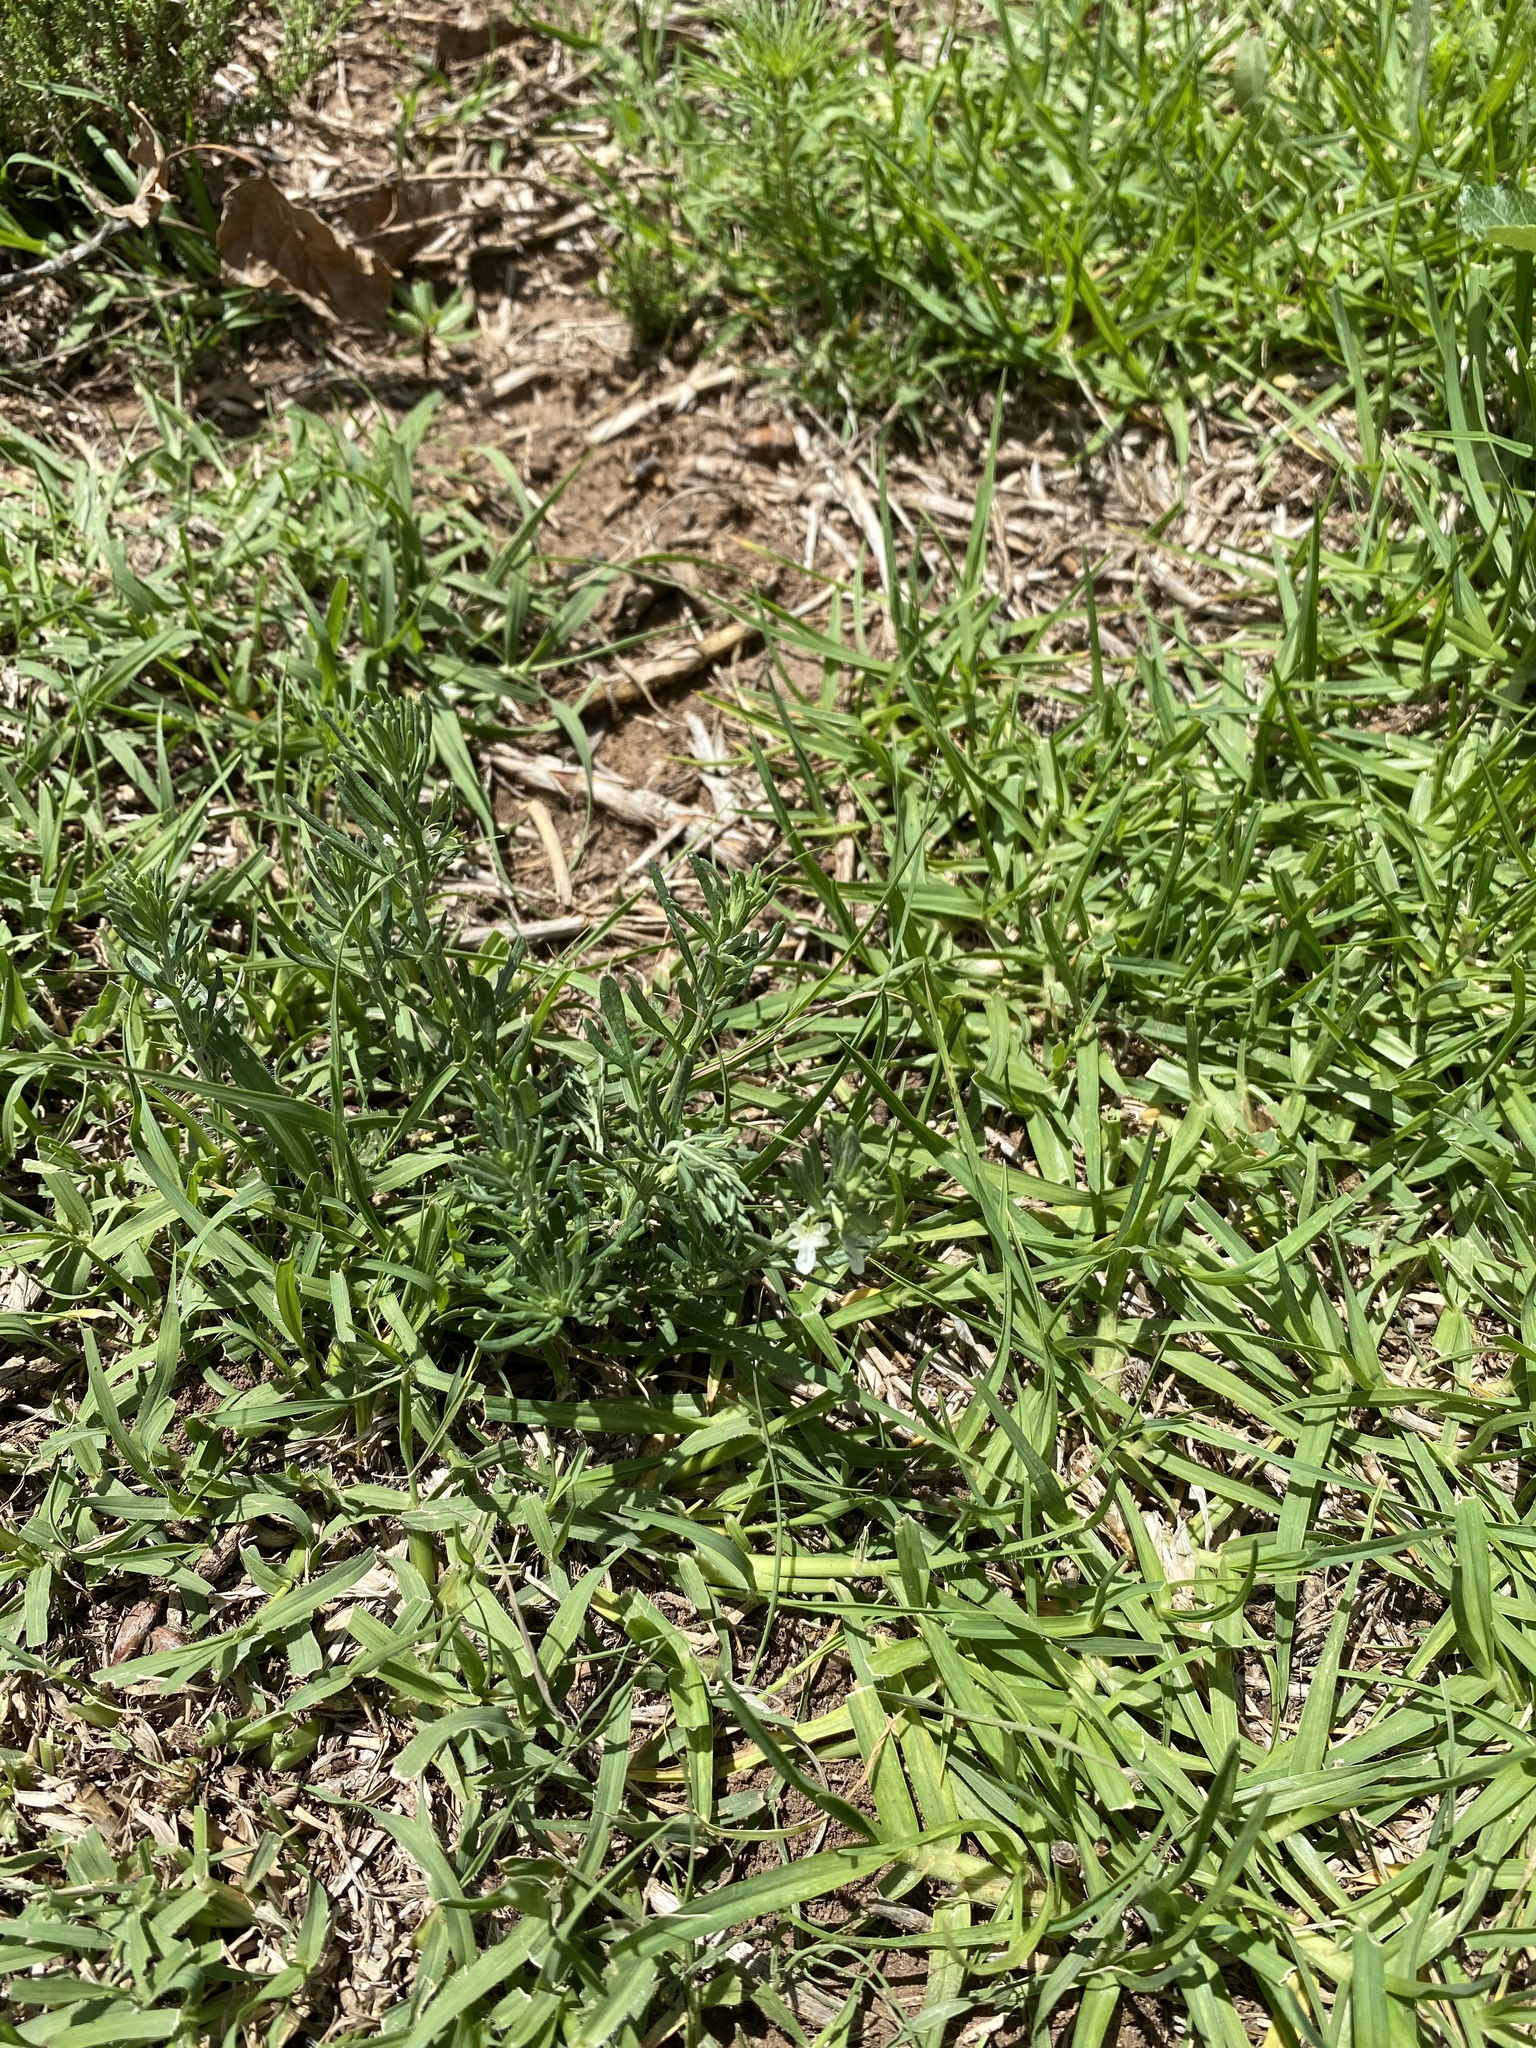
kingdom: Plantae
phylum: Tracheophyta
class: Magnoliopsida
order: Lamiales
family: Lamiaceae
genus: Teucrium
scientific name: Teucrium trifidum
